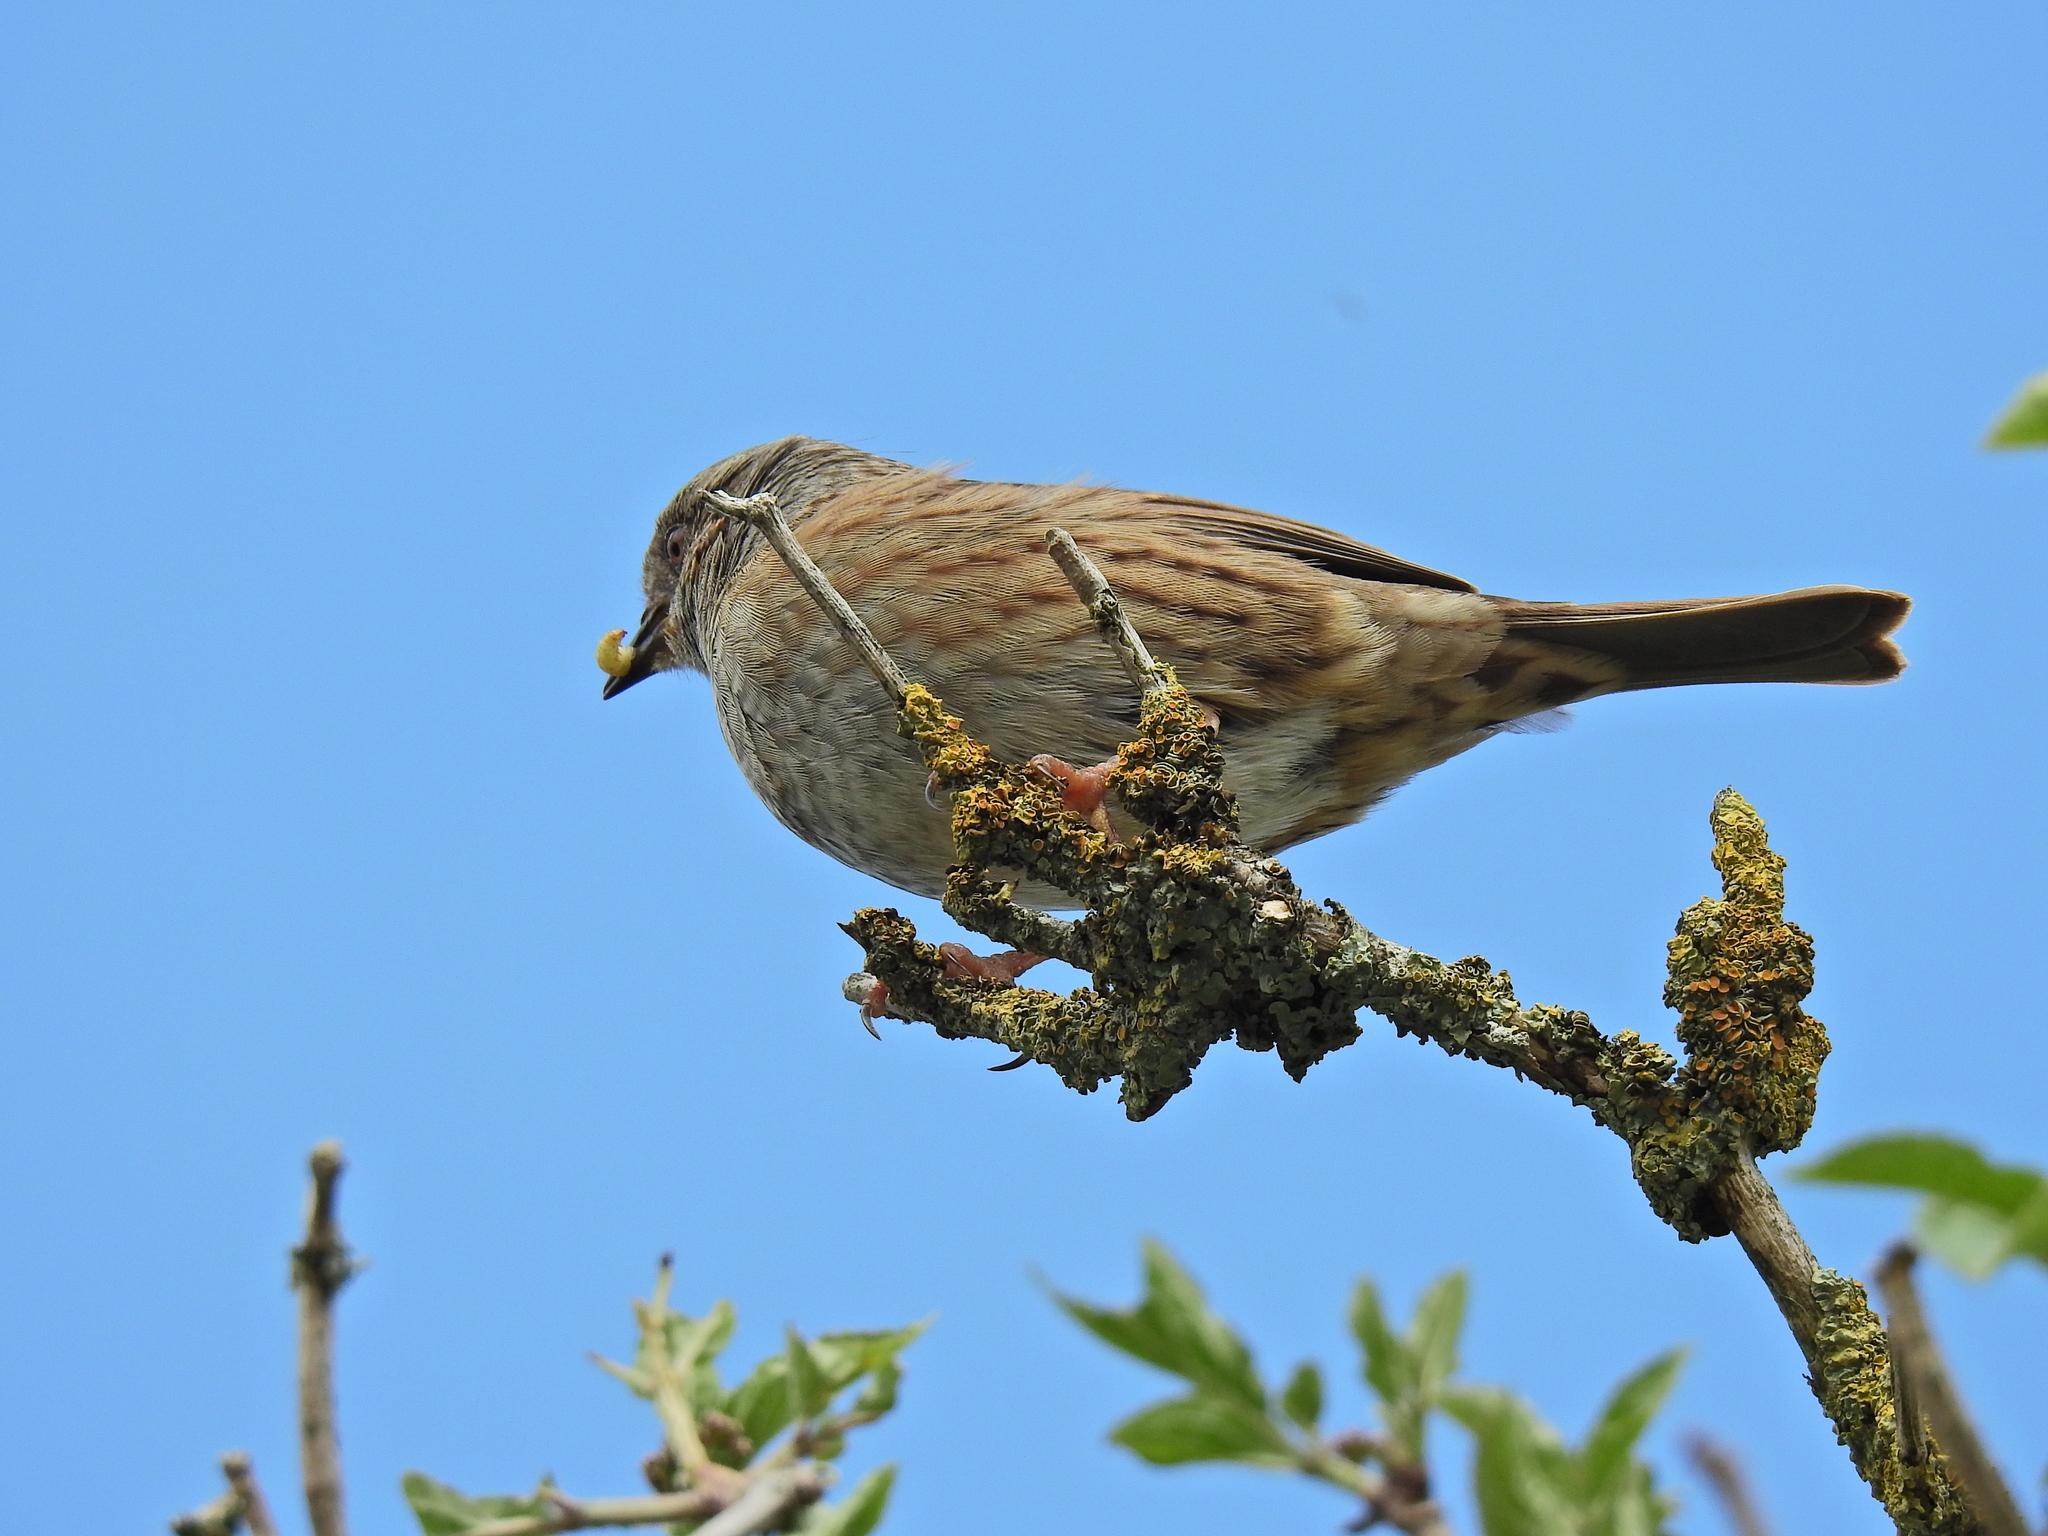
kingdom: Animalia
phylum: Chordata
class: Aves
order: Passeriformes
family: Prunellidae
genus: Prunella
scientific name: Prunella modularis
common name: Dunnock
